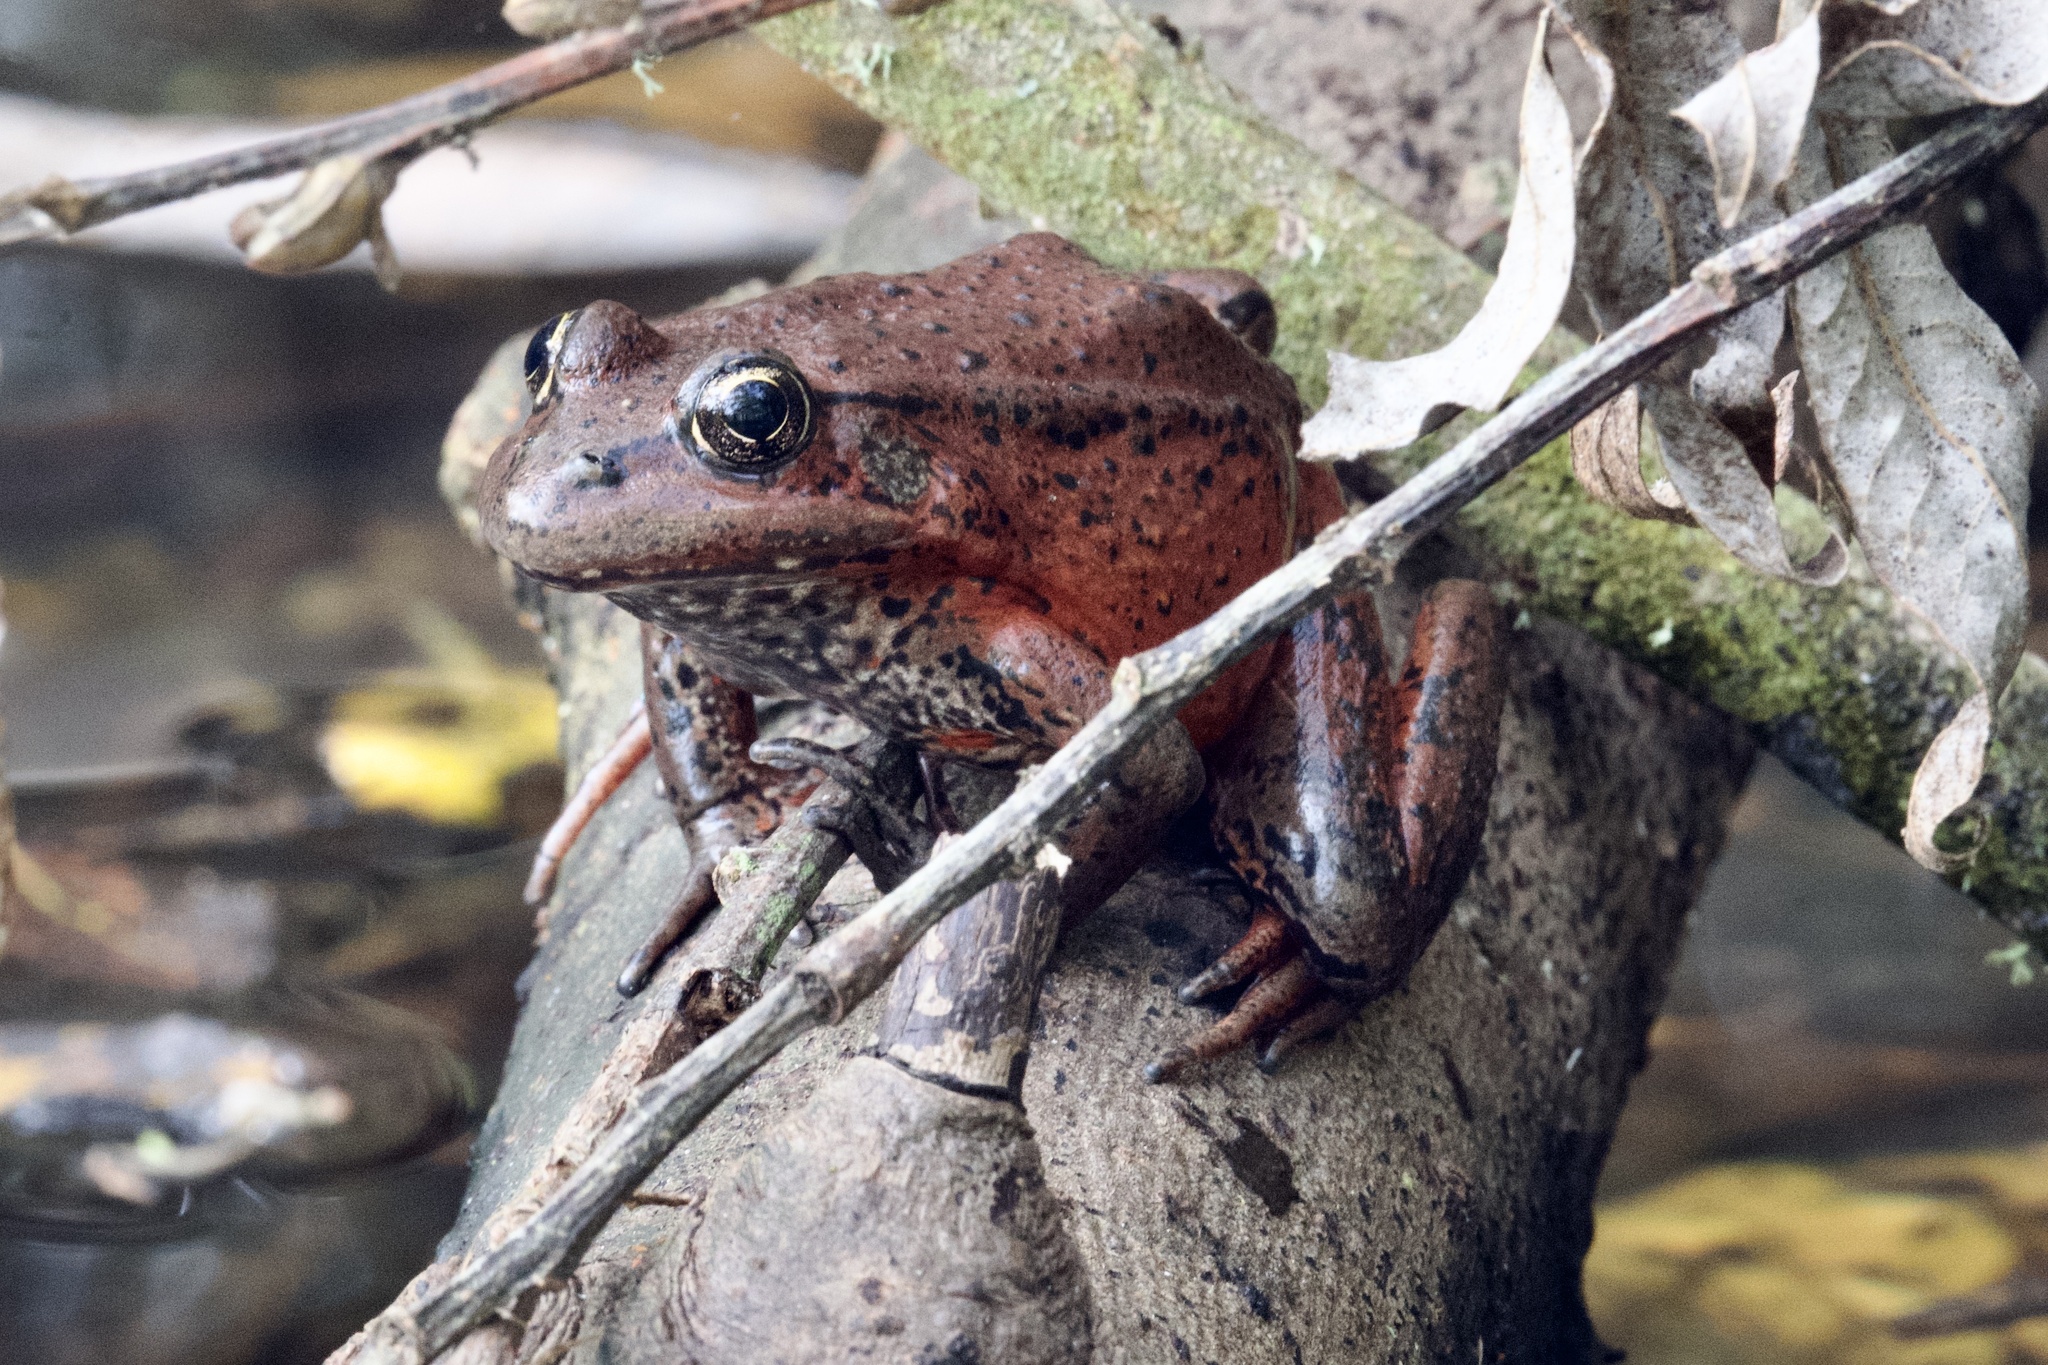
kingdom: Animalia
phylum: Chordata
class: Amphibia
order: Anura
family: Ranidae
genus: Rana
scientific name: Rana draytonii
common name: California red-legged frog
